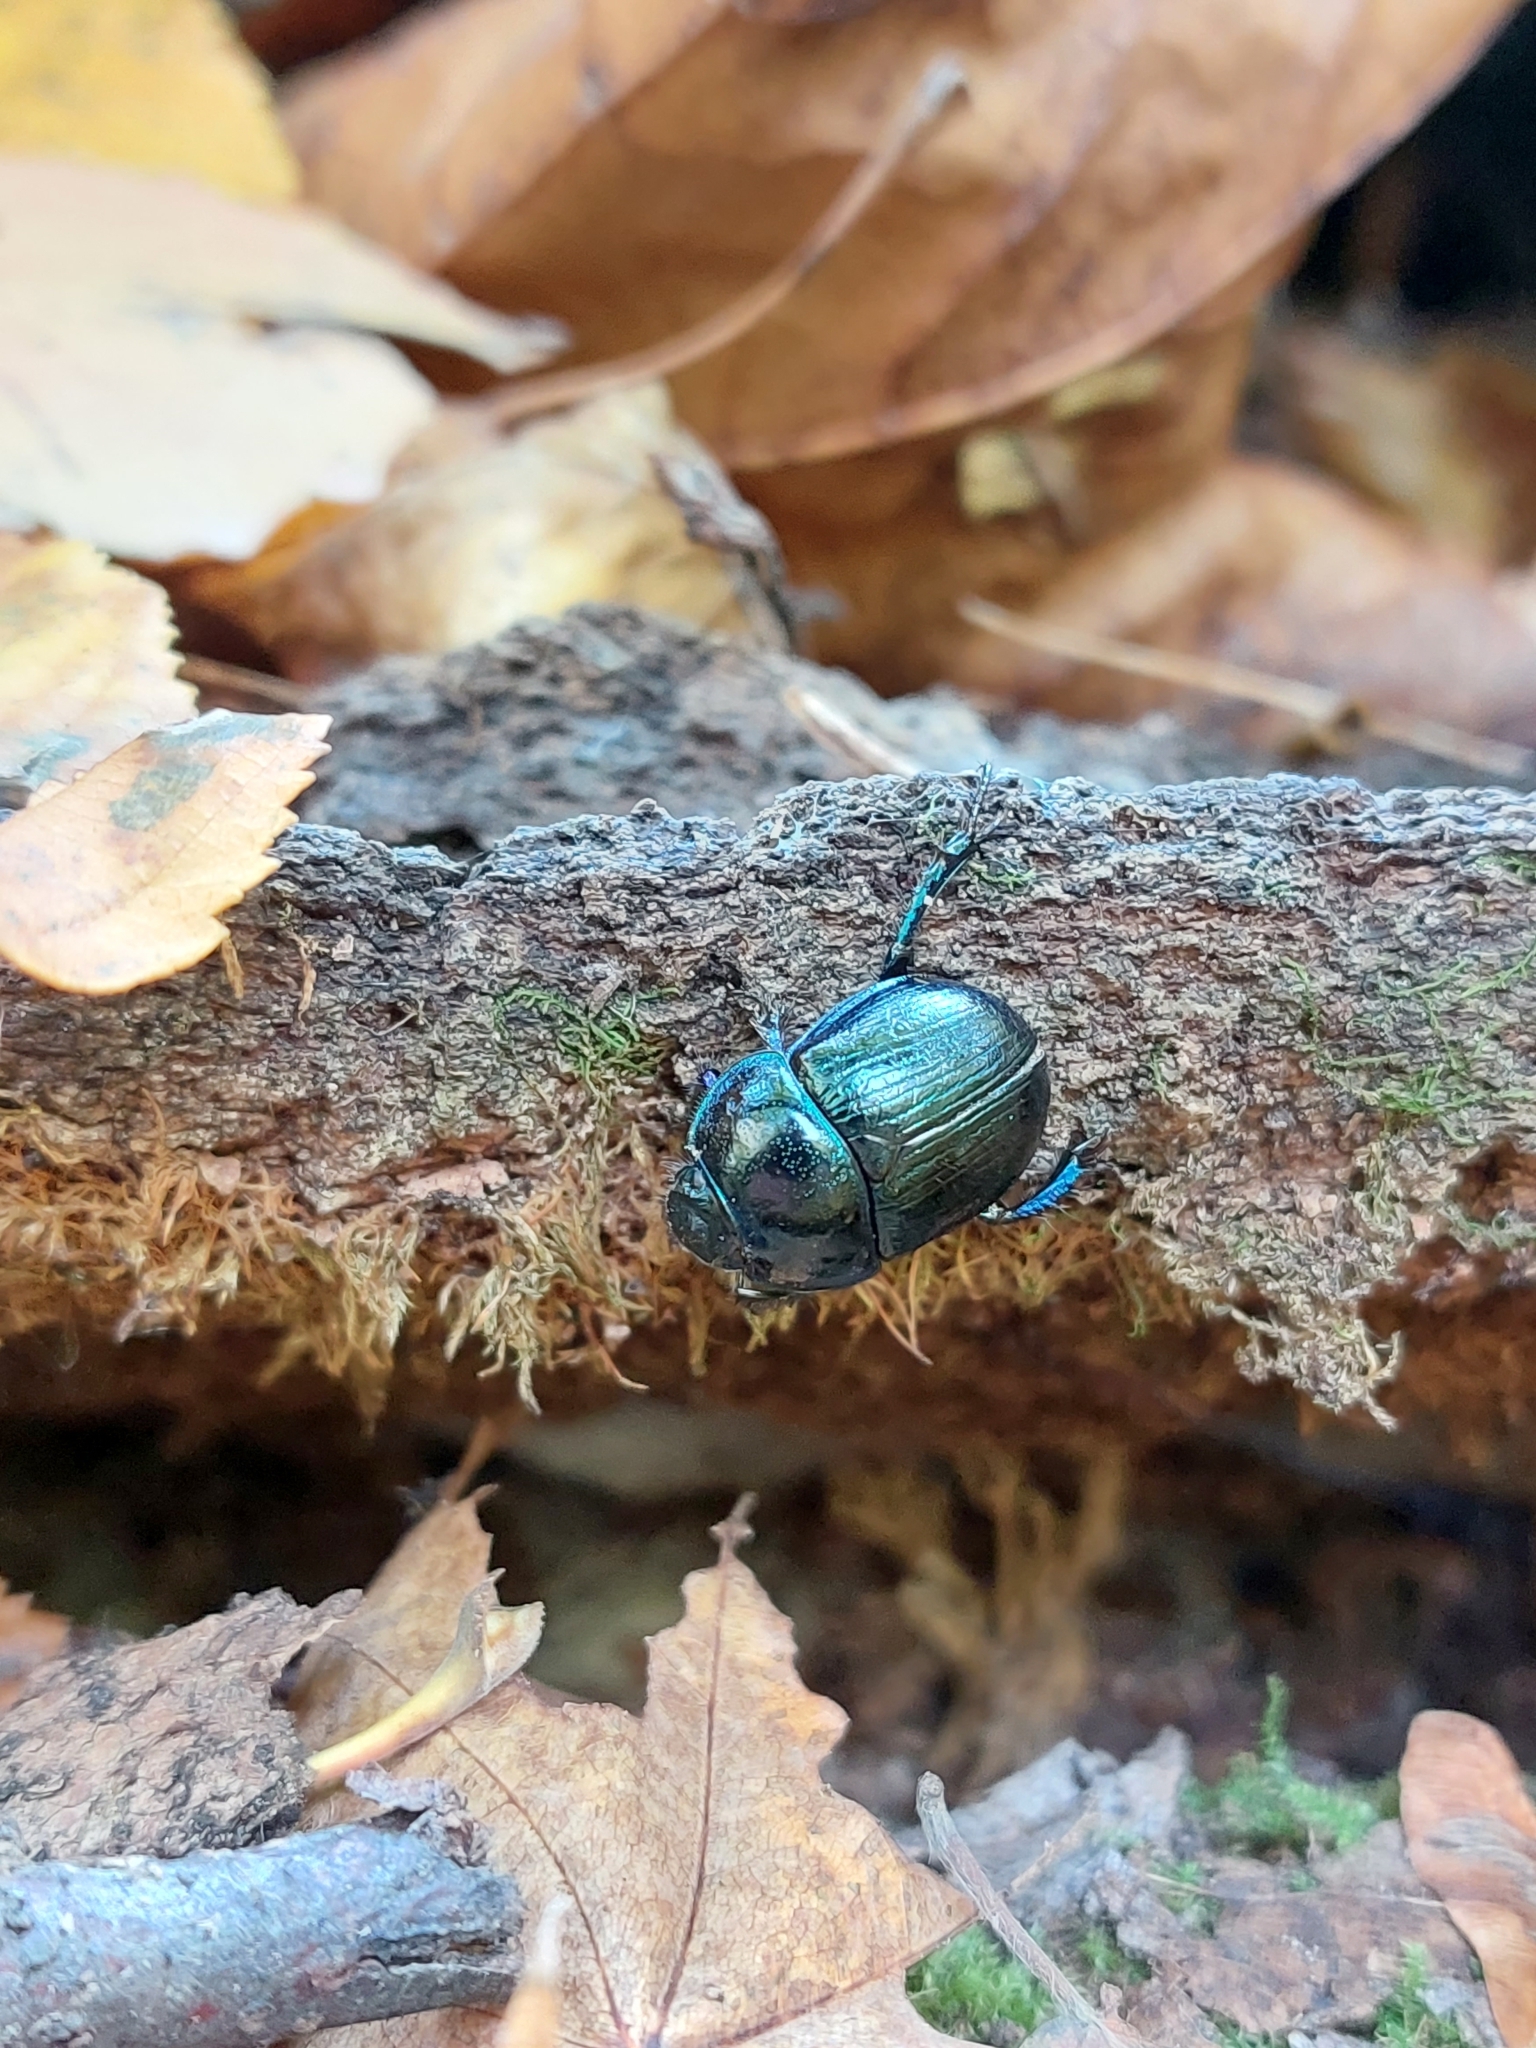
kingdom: Animalia
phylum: Arthropoda
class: Insecta
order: Coleoptera
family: Geotrupidae
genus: Anoplotrupes
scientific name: Anoplotrupes stercorosus
